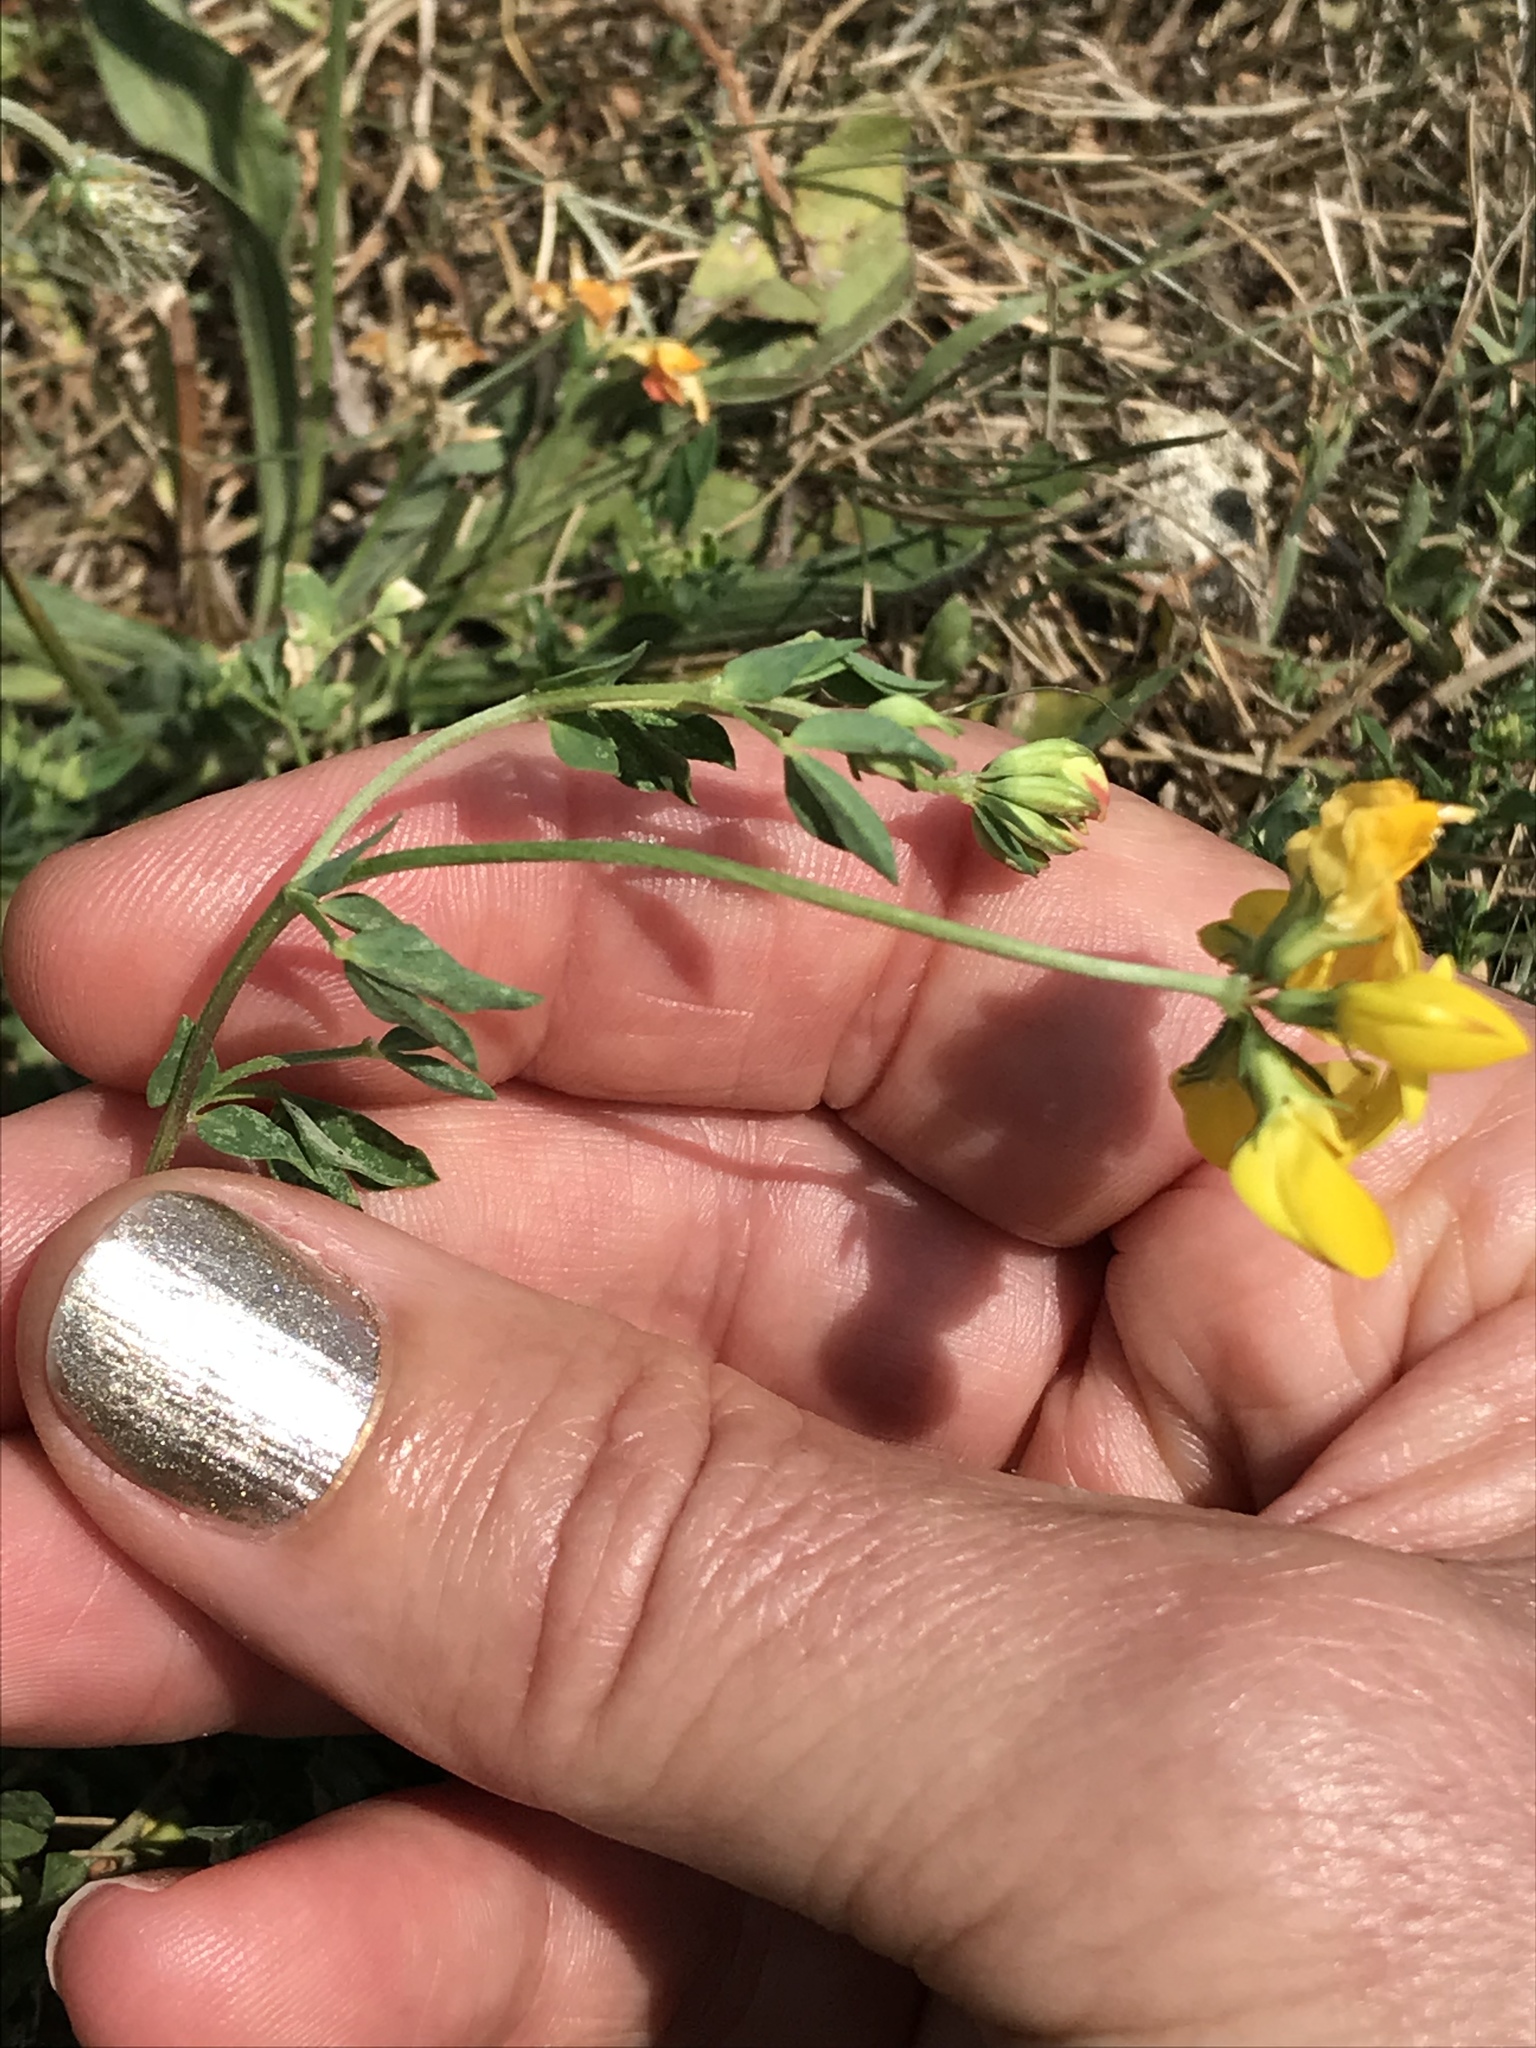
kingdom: Plantae
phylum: Tracheophyta
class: Magnoliopsida
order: Fabales
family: Fabaceae
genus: Lotus
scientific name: Lotus corniculatus
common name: Common bird's-foot-trefoil
